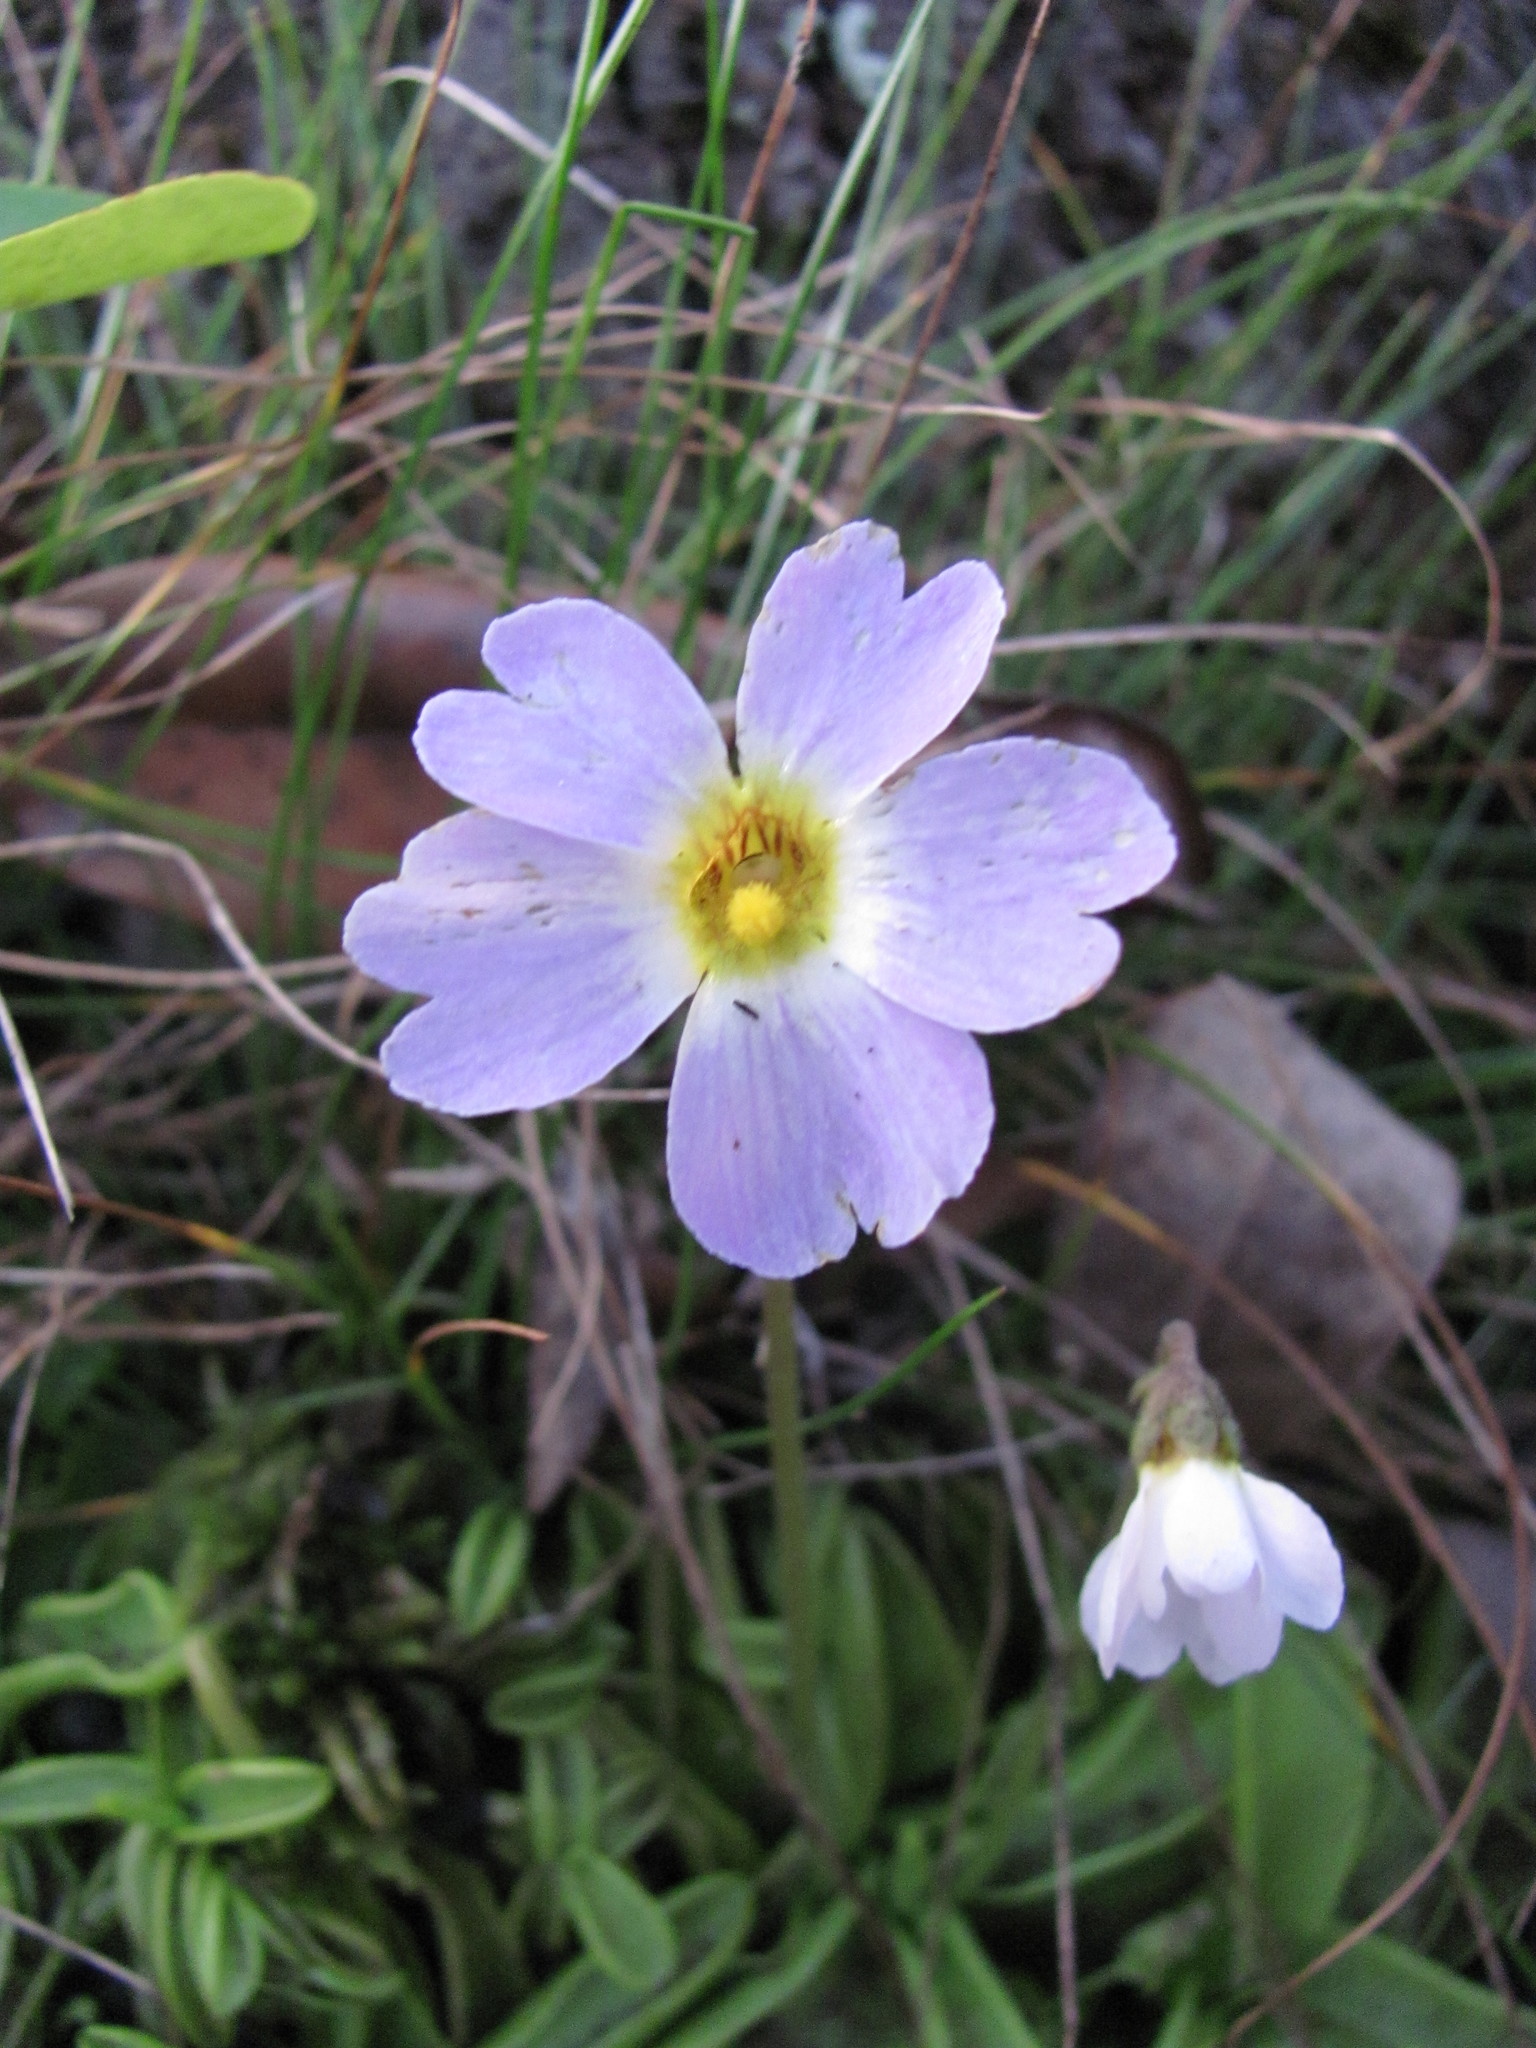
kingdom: Plantae
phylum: Tracheophyta
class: Magnoliopsida
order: Lamiales
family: Lentibulariaceae
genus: Pinguicula
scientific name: Pinguicula primuliflora
